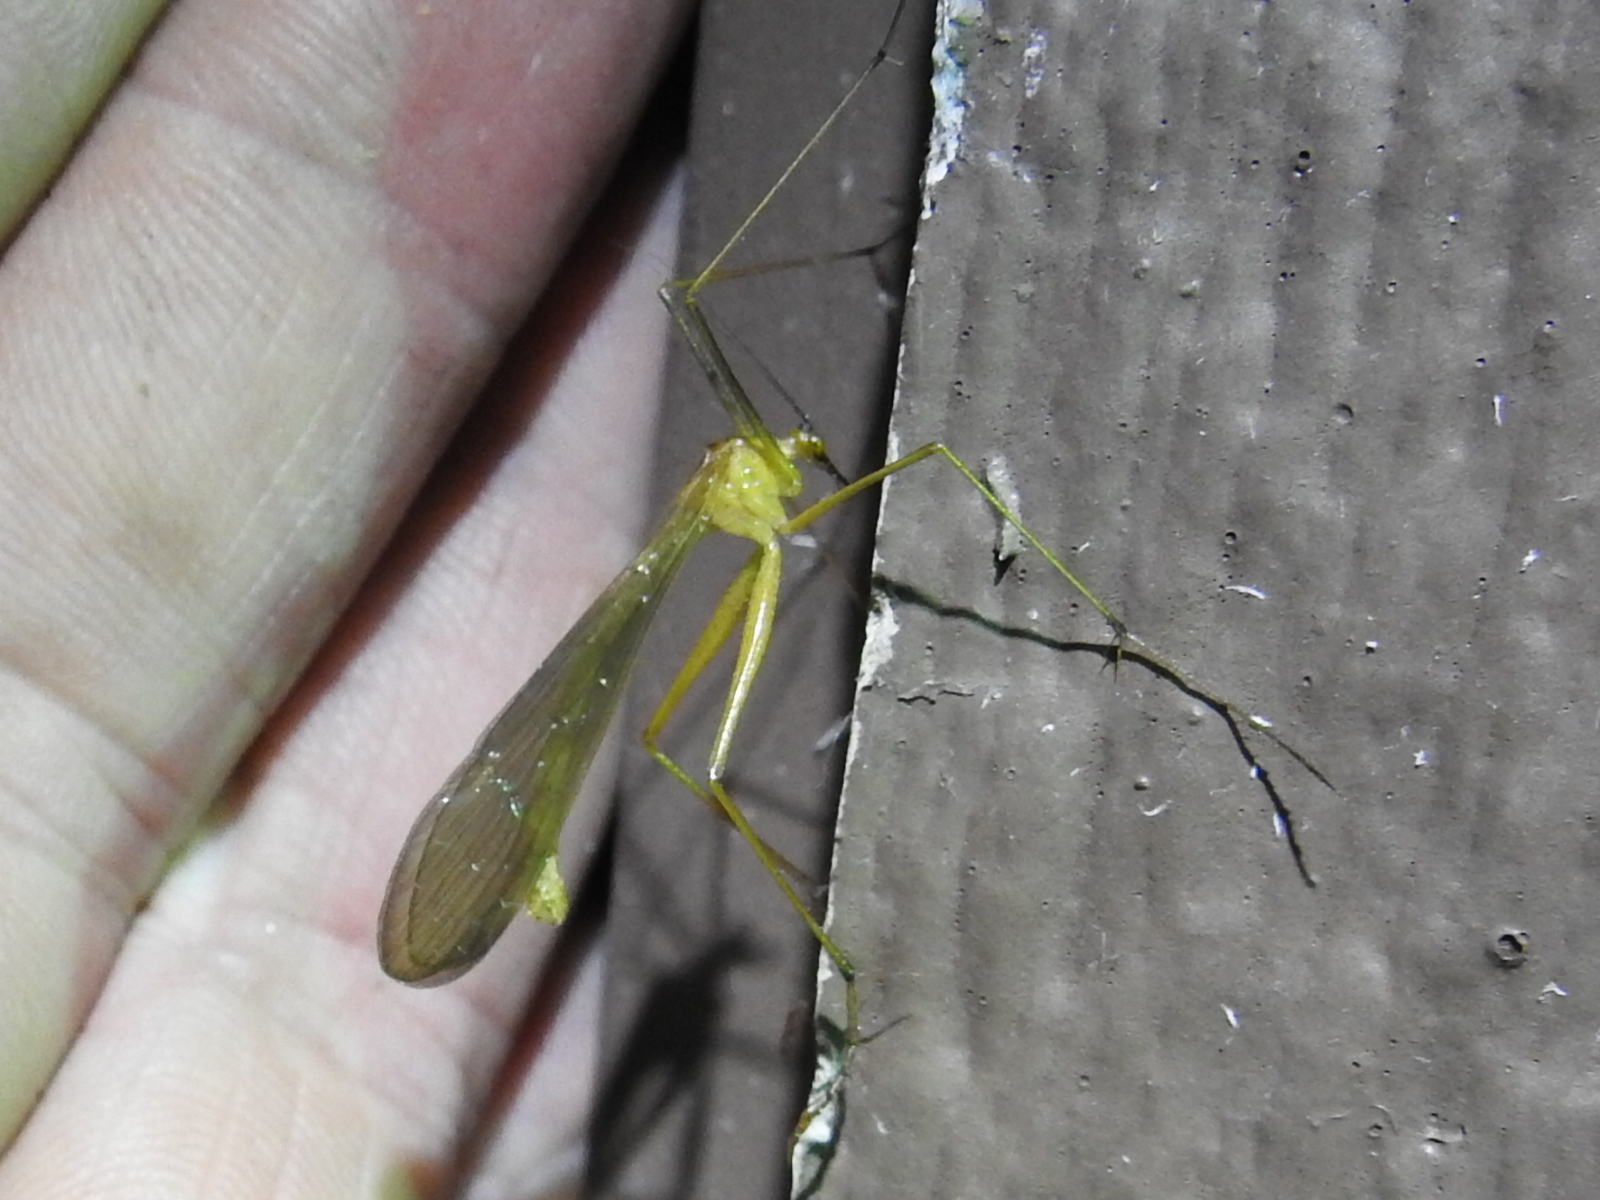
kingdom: Animalia
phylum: Arthropoda
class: Insecta
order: Mecoptera
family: Bittacidae
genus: Bittacus
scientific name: Bittacus texanus
